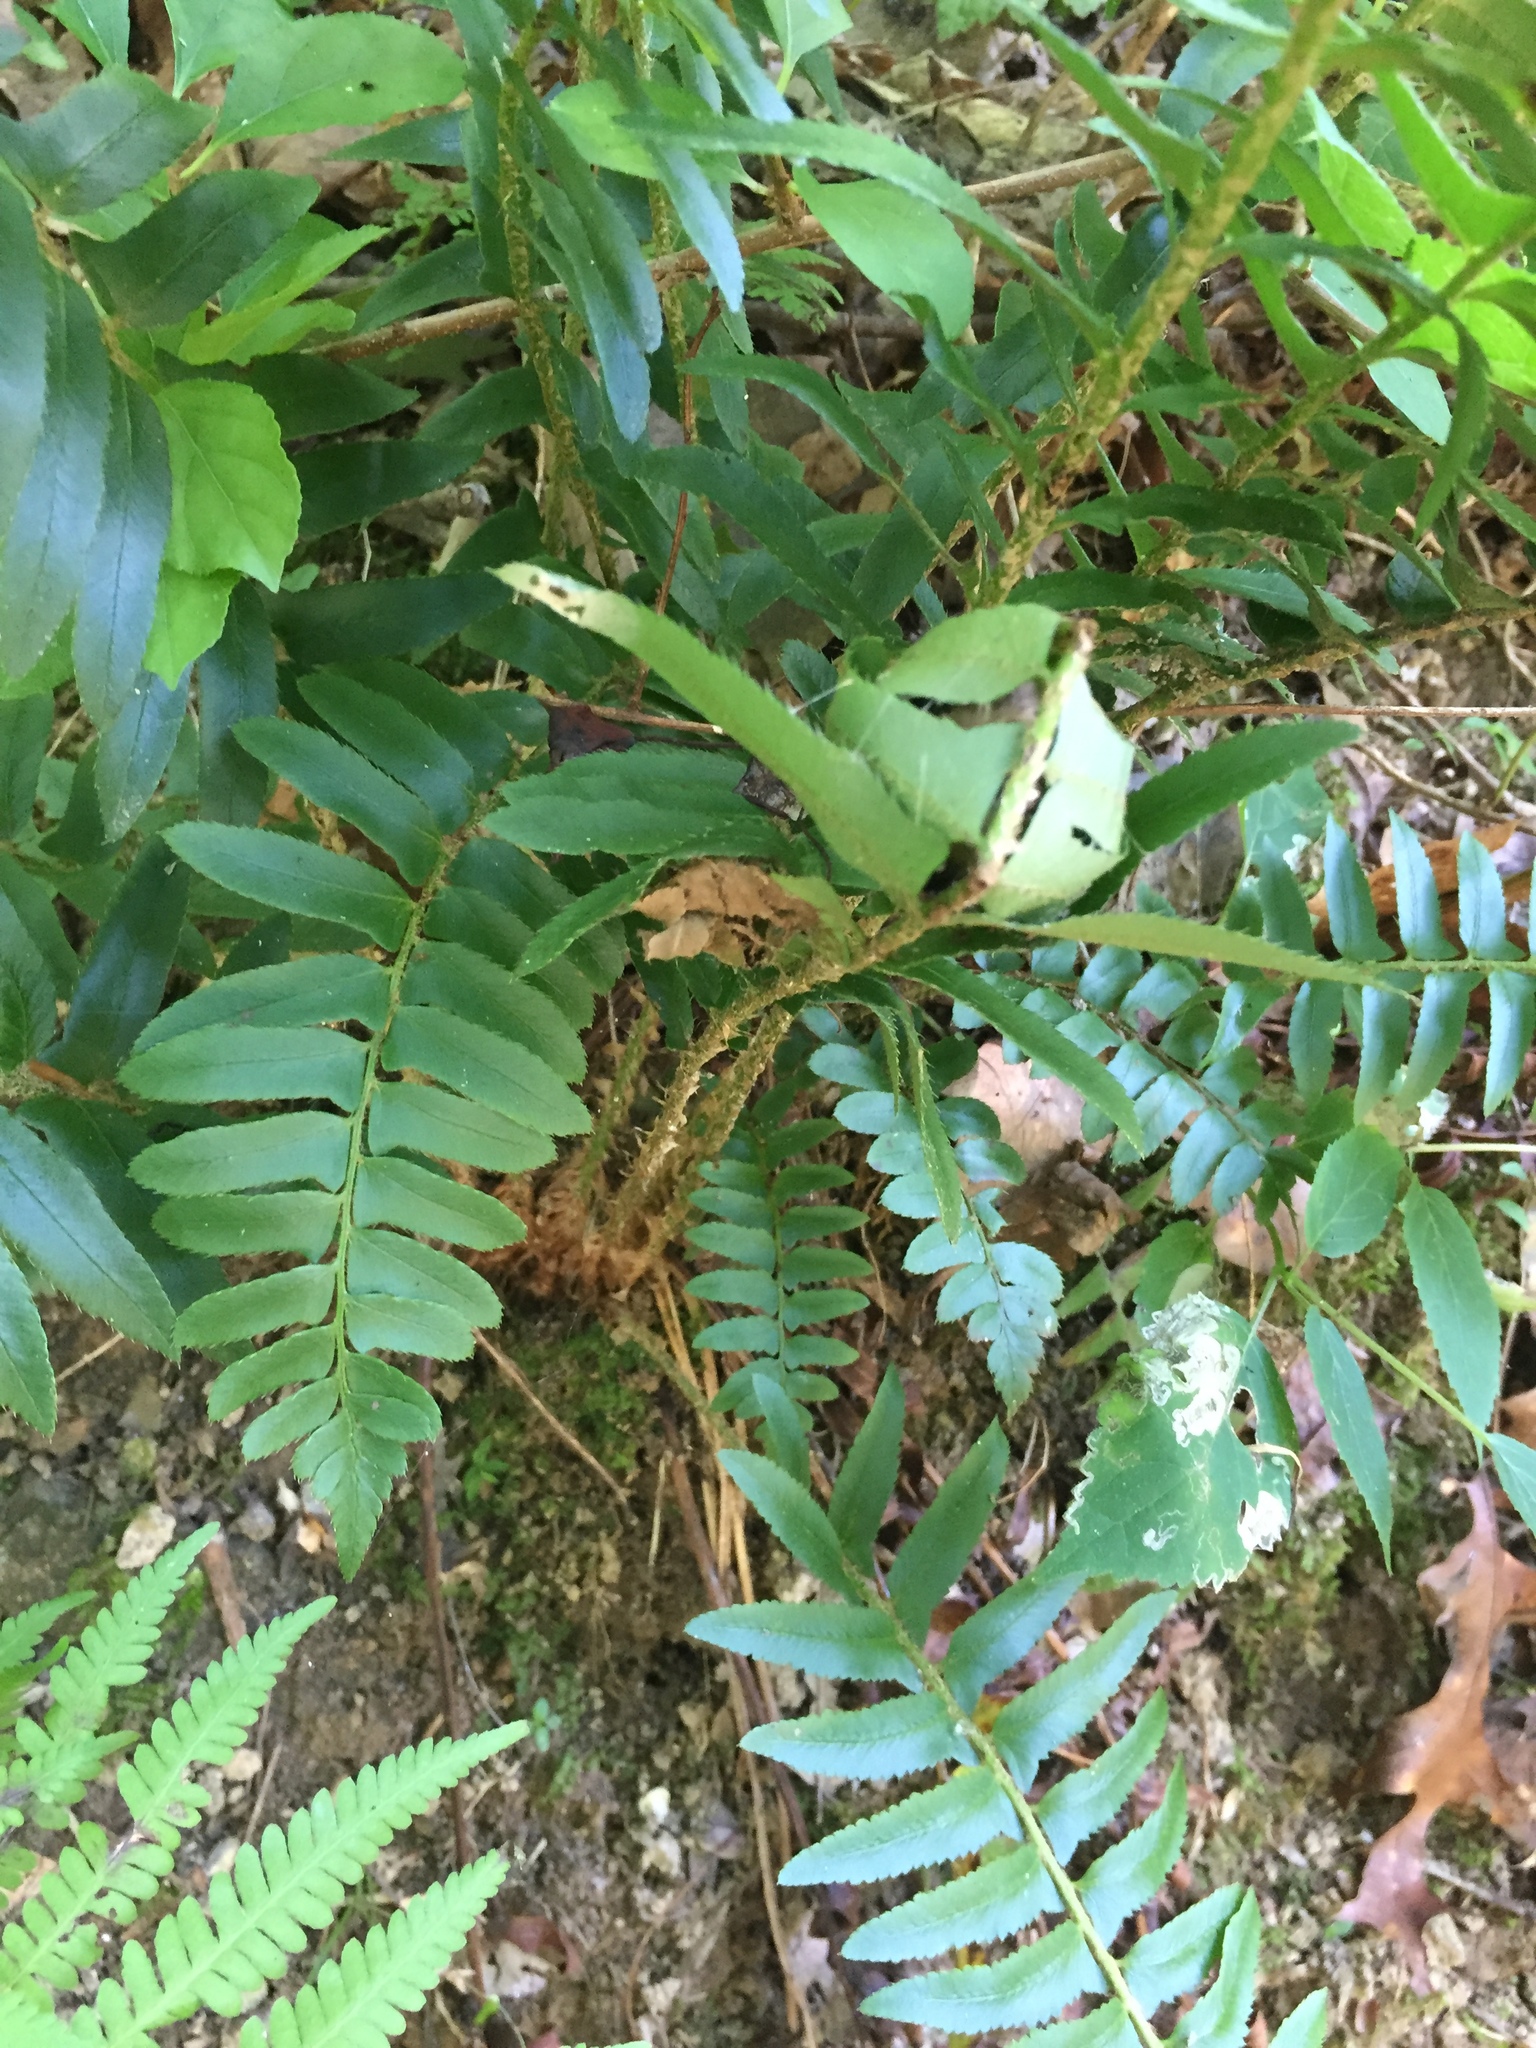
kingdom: Plantae
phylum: Tracheophyta
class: Polypodiopsida
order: Polypodiales
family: Dryopteridaceae
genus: Polystichum
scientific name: Polystichum acrostichoides
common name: Christmas fern
